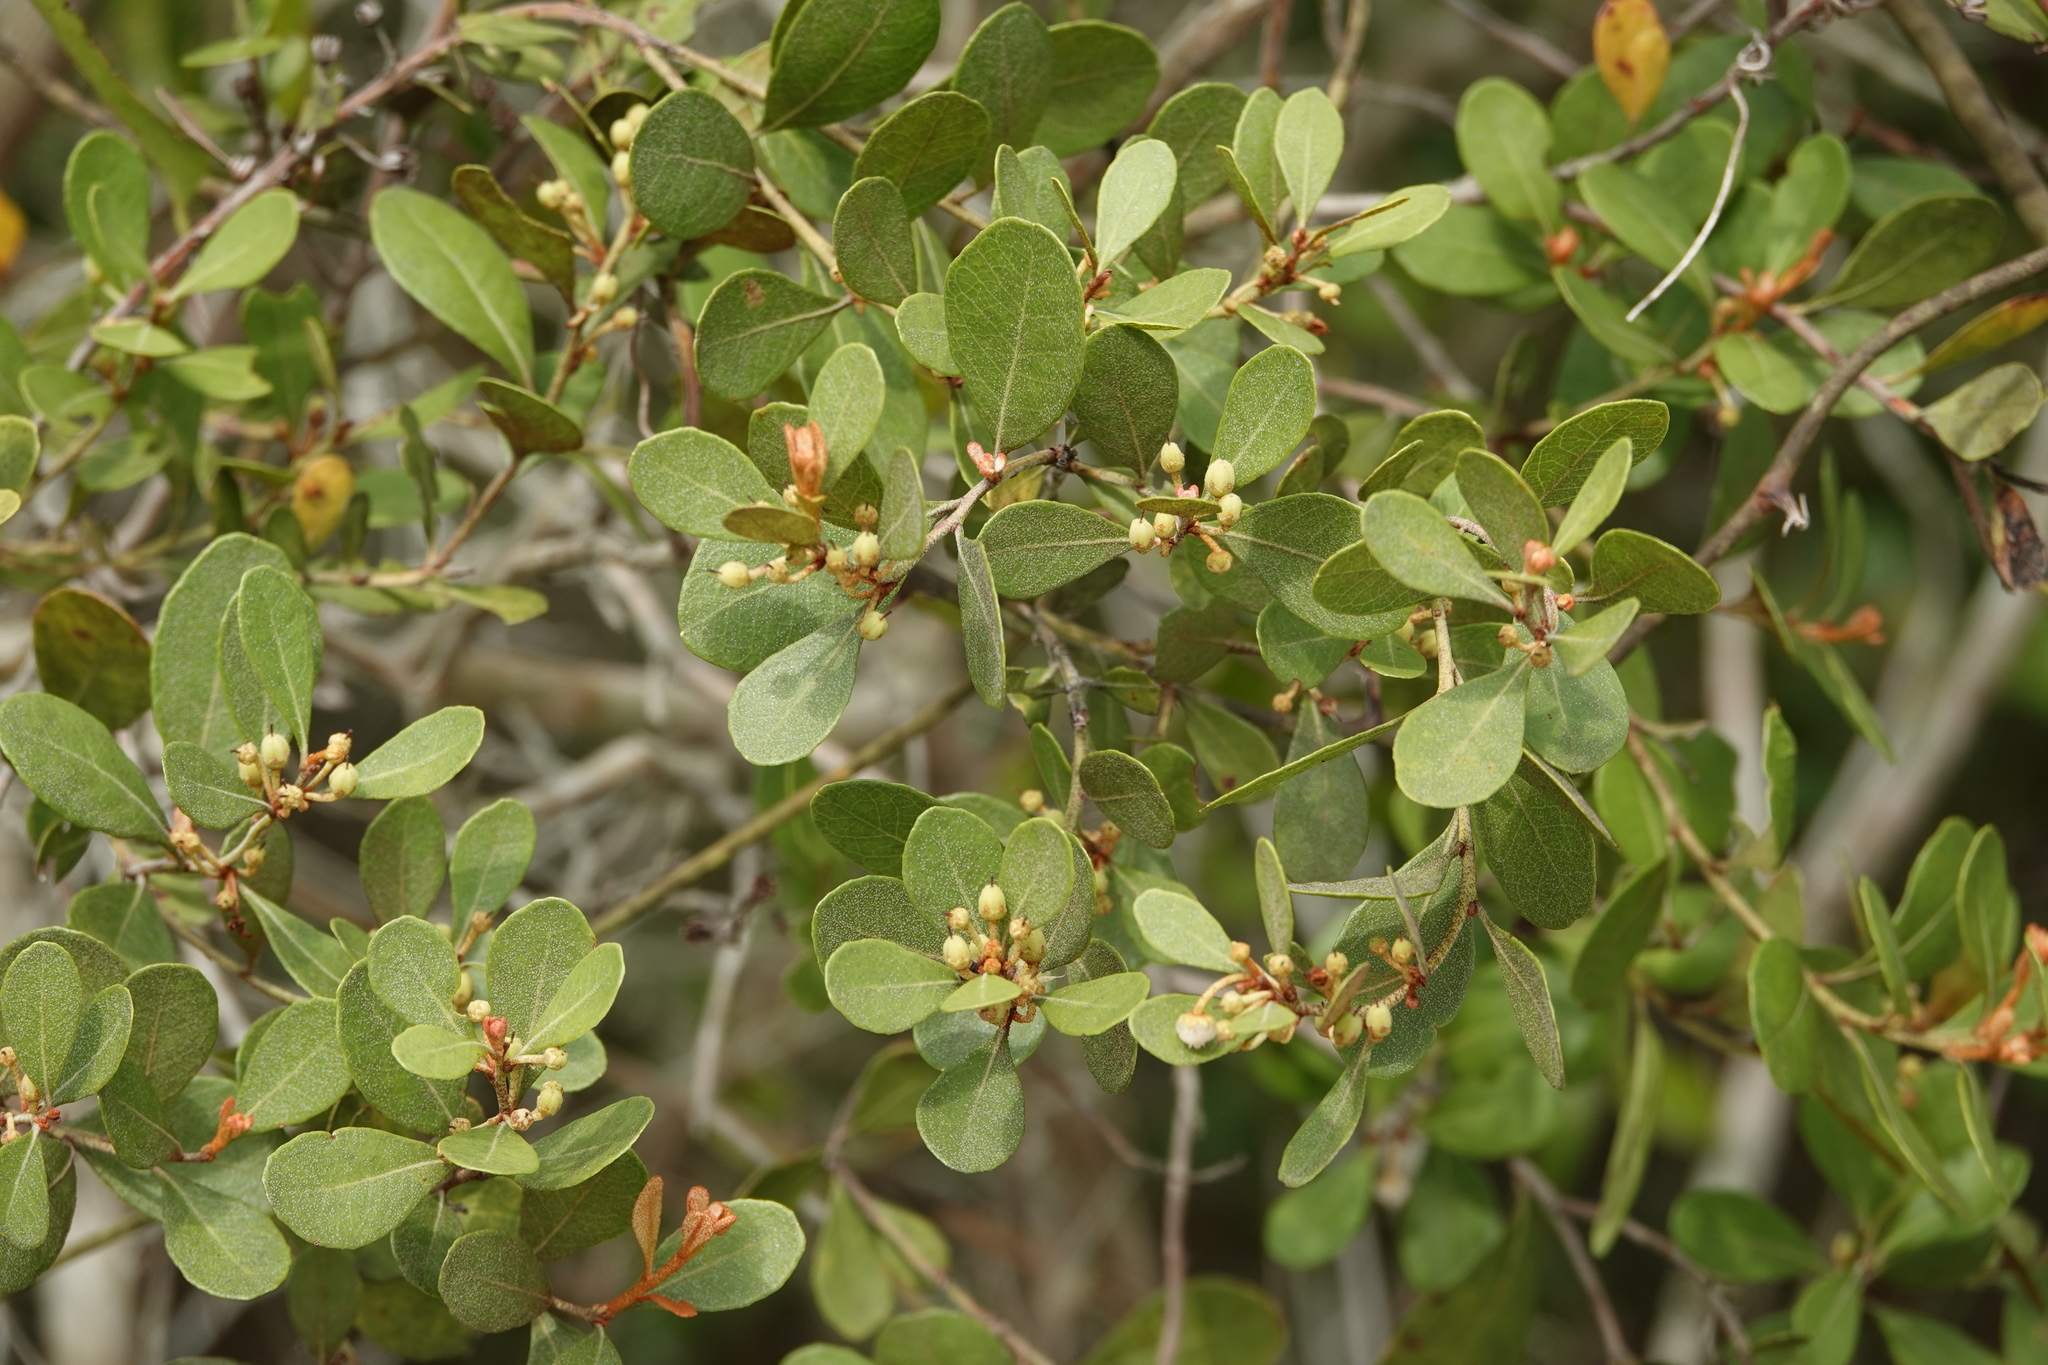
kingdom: Plantae
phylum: Tracheophyta
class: Magnoliopsida
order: Ericales
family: Ericaceae
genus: Lyonia
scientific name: Lyonia fruticosa
